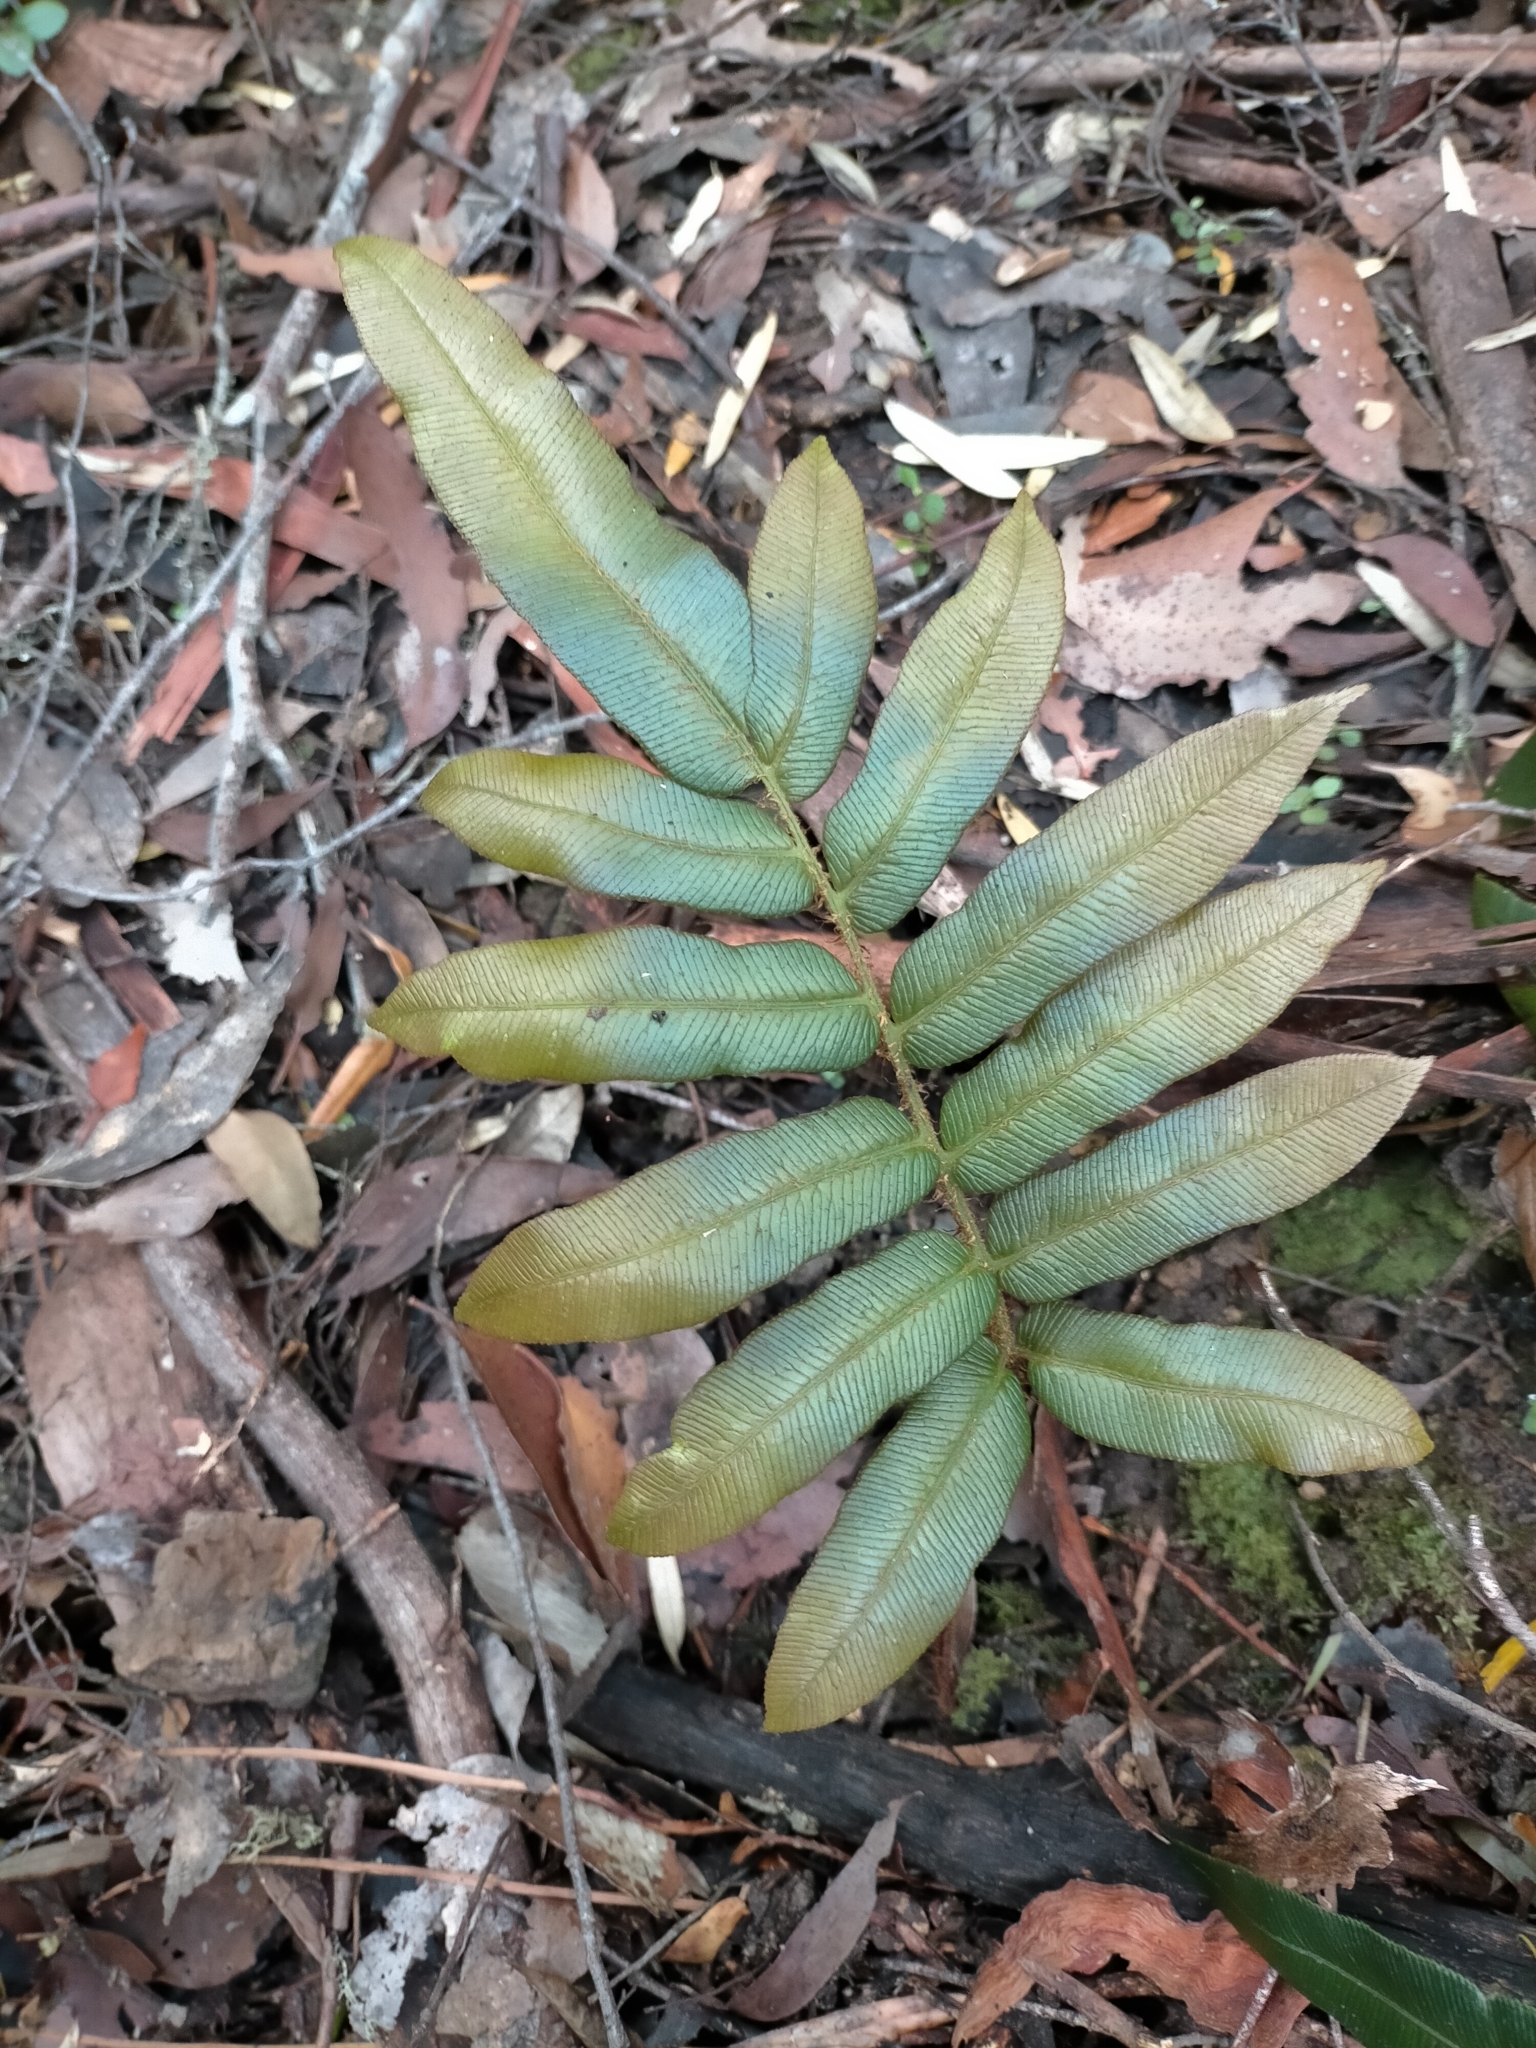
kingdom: Plantae
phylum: Tracheophyta
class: Polypodiopsida
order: Polypodiales
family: Blechnaceae
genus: Parablechnum
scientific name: Parablechnum wattsii
